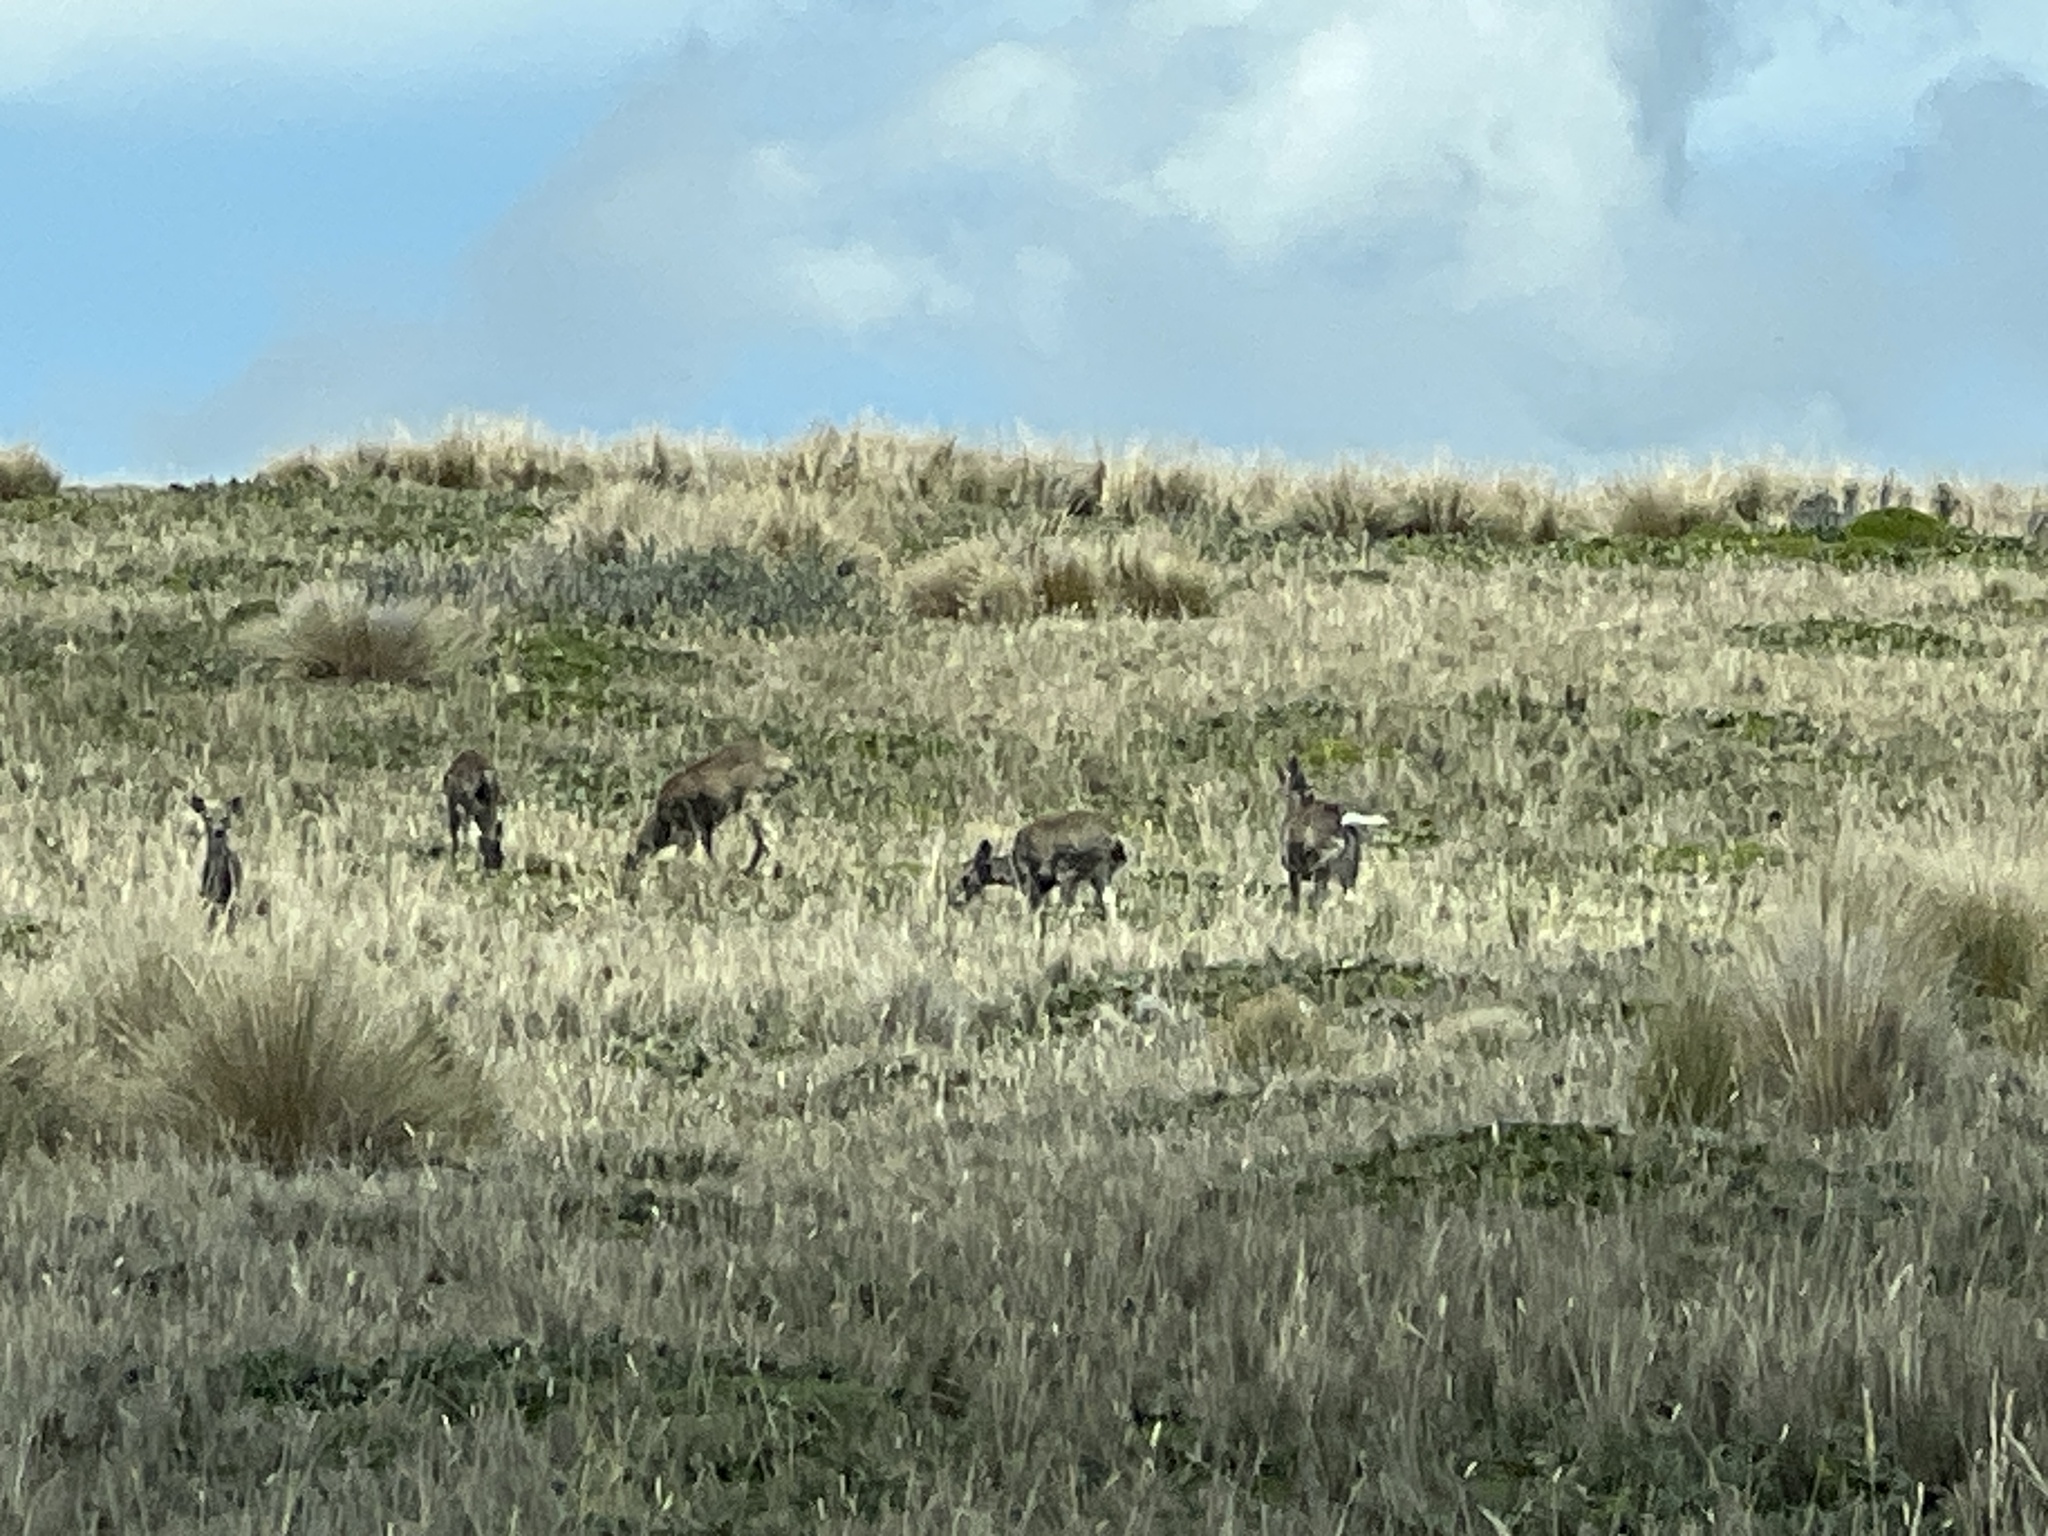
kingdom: Animalia
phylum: Chordata
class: Mammalia
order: Artiodactyla
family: Cervidae
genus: Odocoileus
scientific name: Odocoileus virginianus
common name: White-tailed deer
